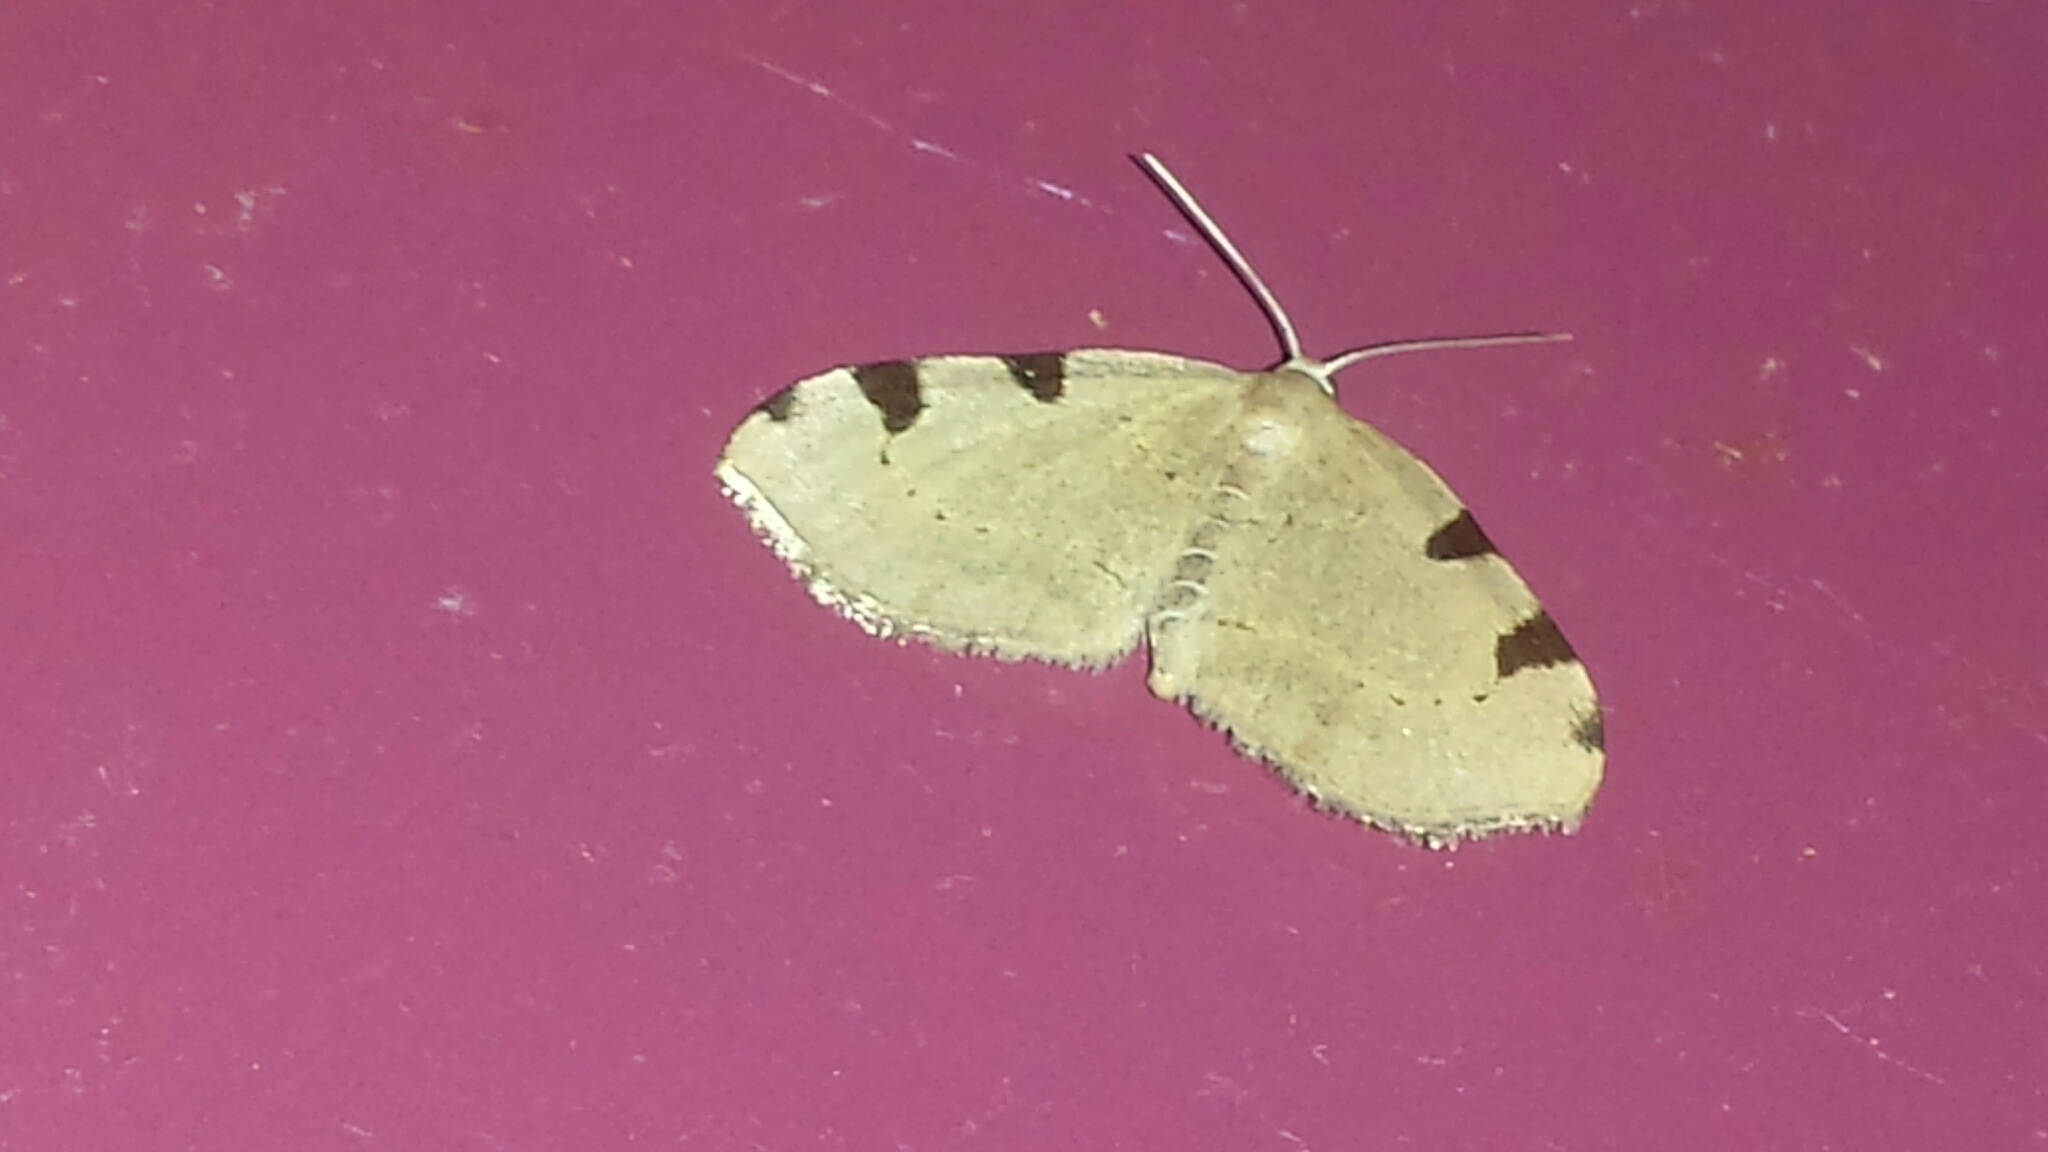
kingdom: Animalia
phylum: Arthropoda
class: Insecta
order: Lepidoptera
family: Geometridae
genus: Heterophleps
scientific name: Heterophleps triguttaria
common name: Three-spotted fillip
